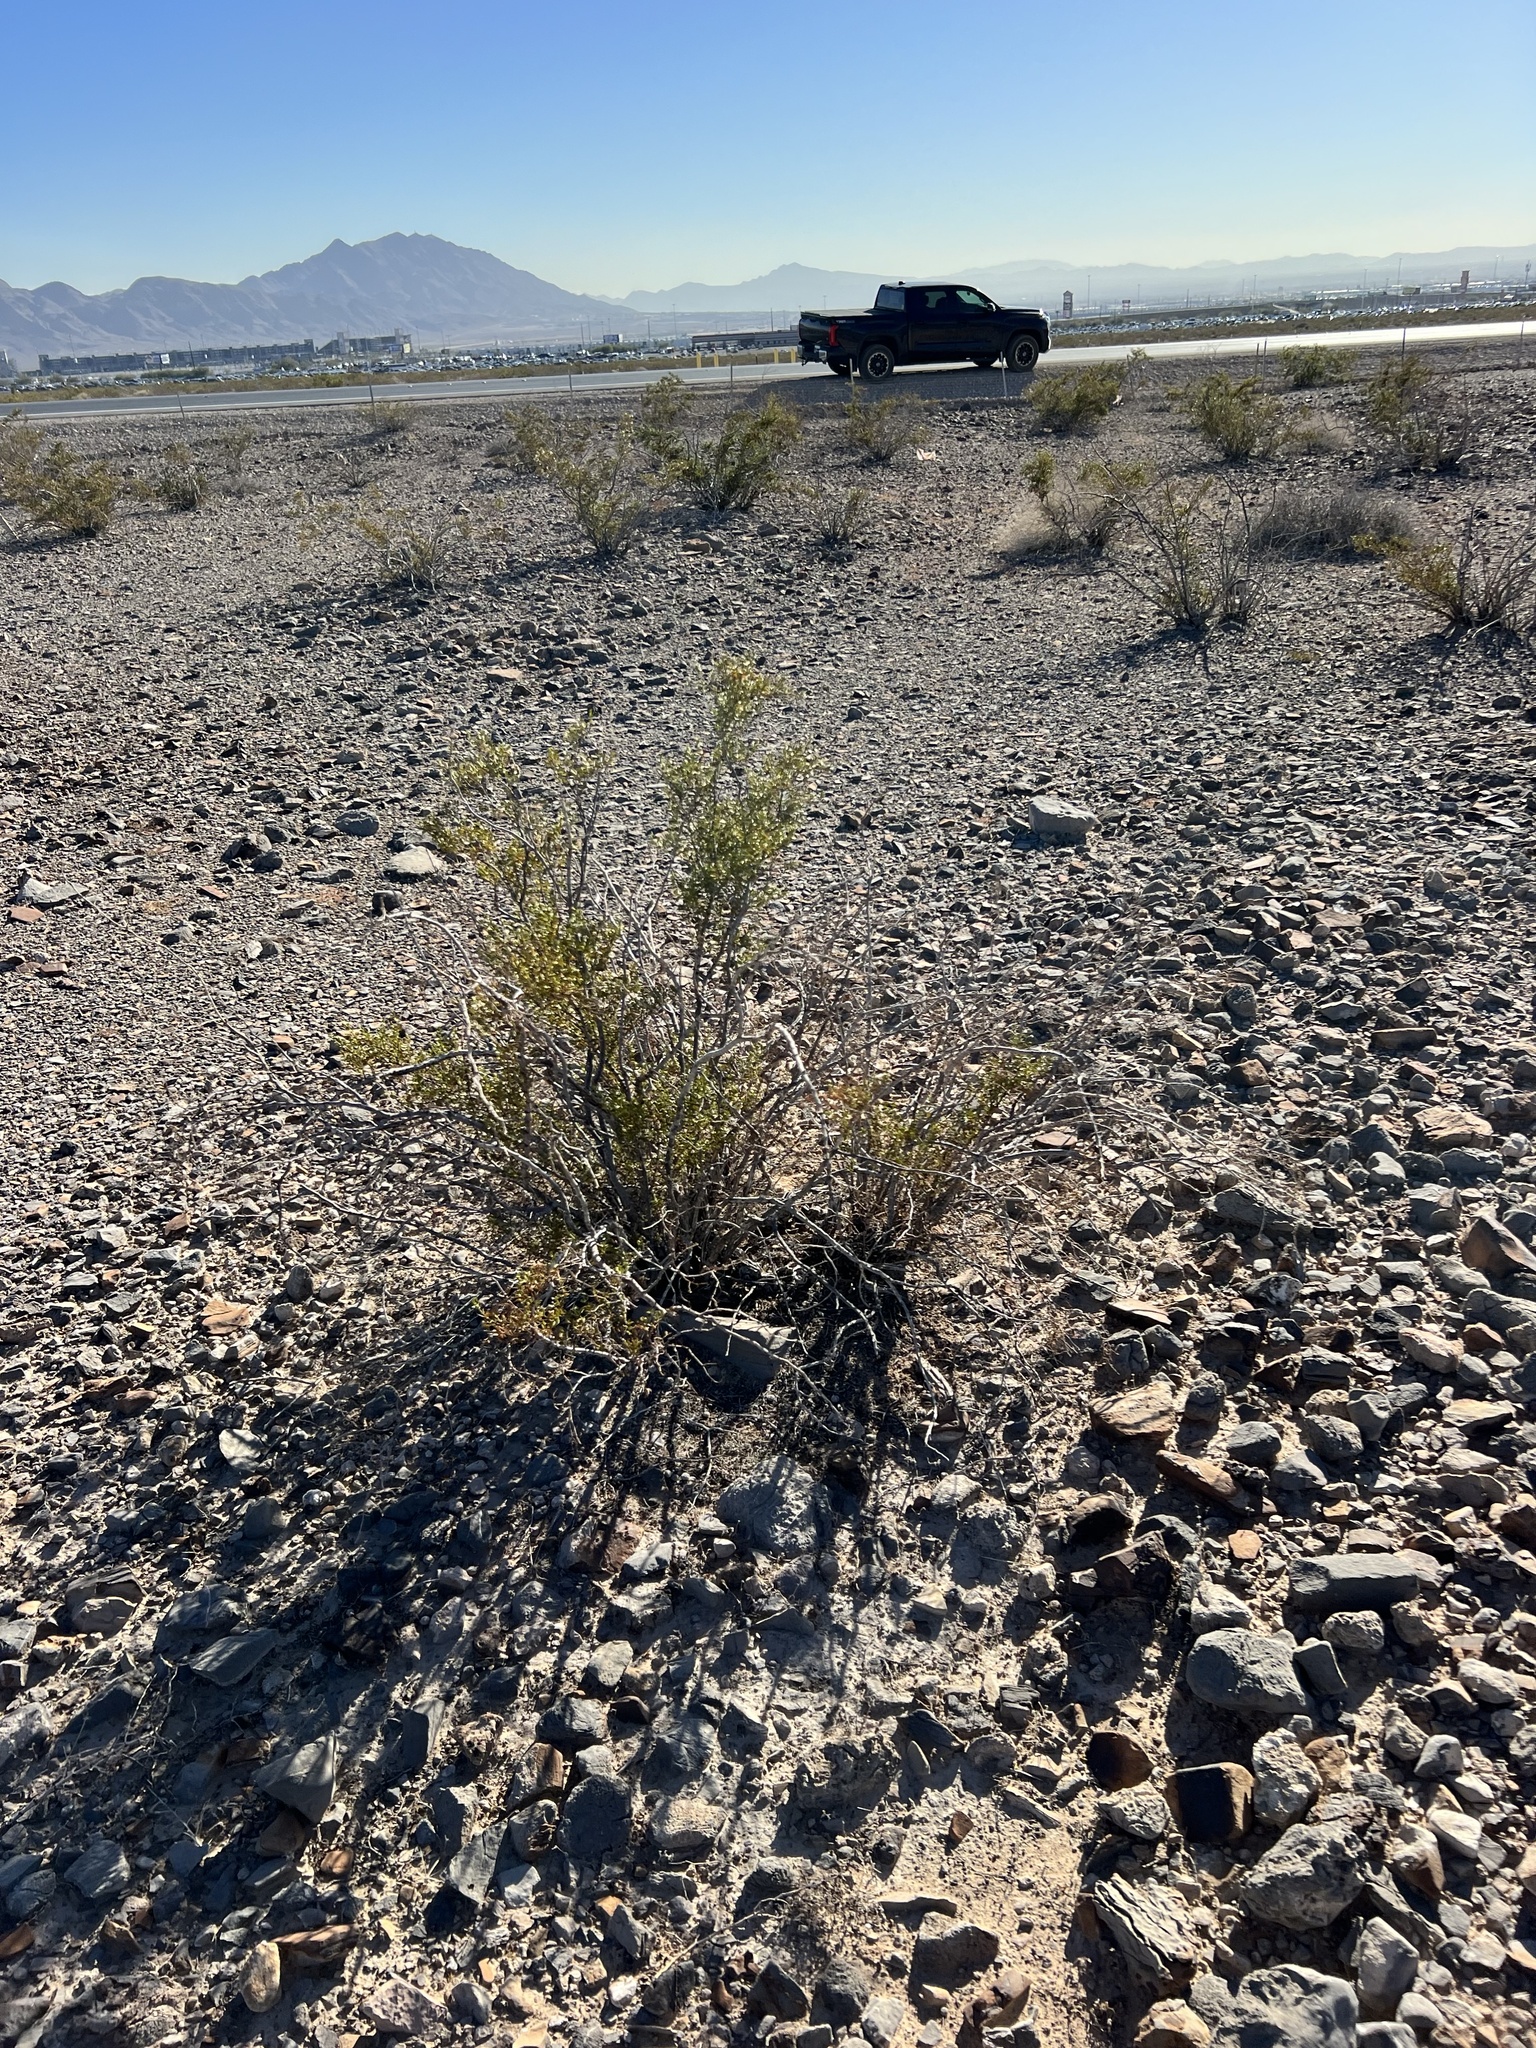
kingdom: Plantae
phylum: Tracheophyta
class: Magnoliopsida
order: Zygophyllales
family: Zygophyllaceae
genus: Larrea
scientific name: Larrea tridentata
